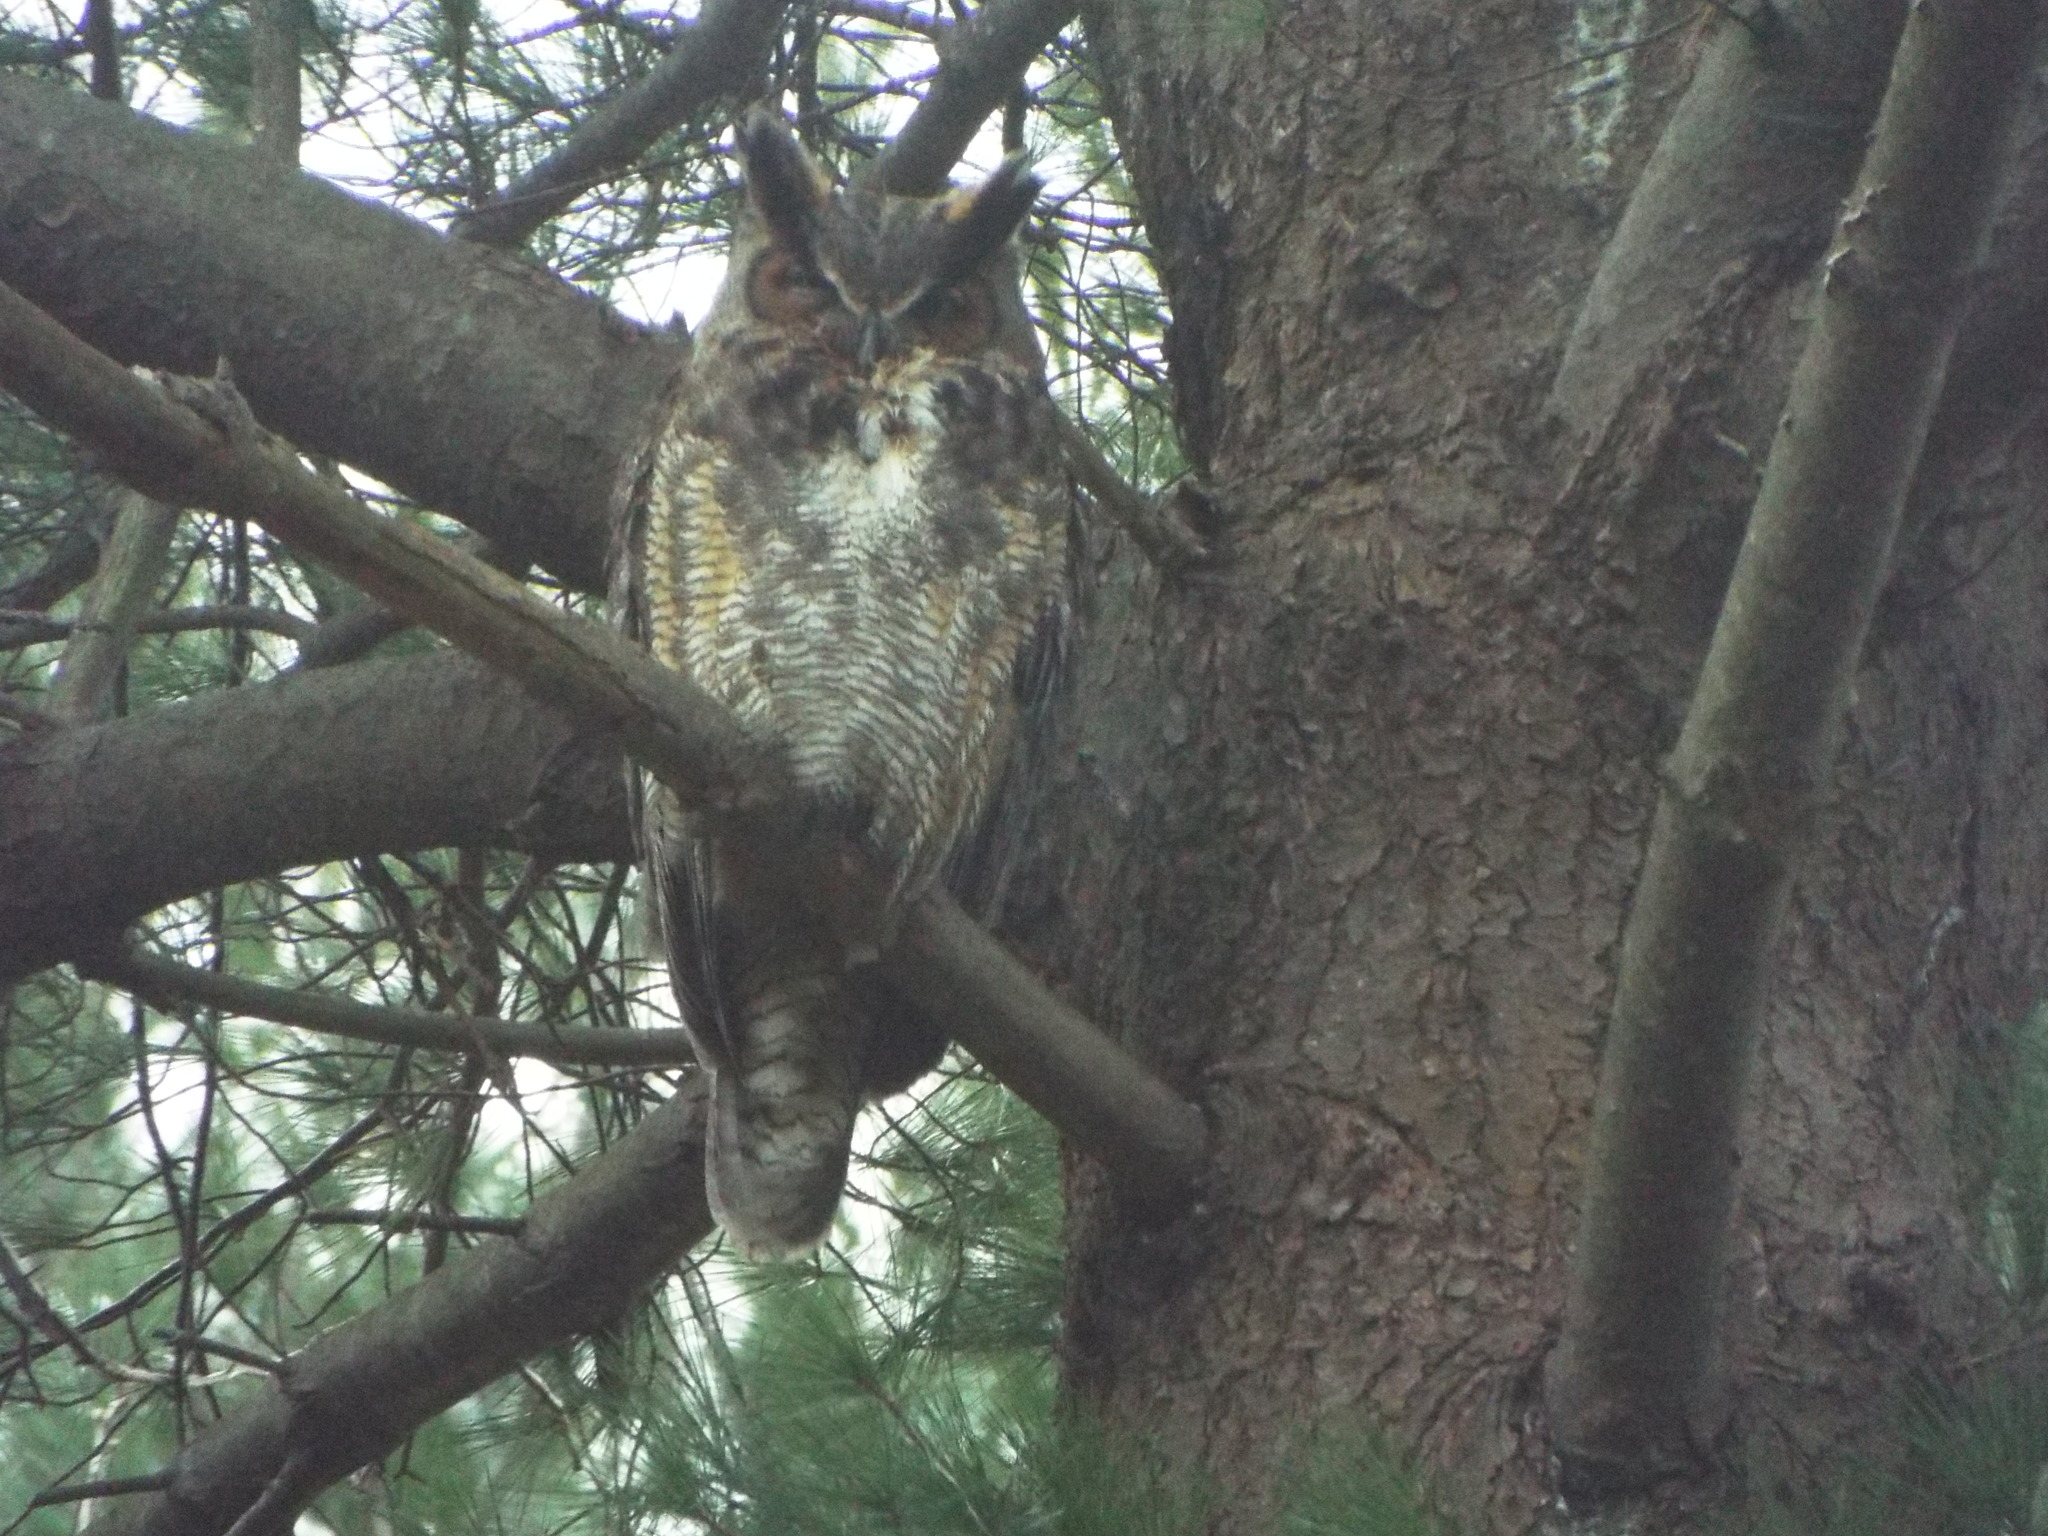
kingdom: Animalia
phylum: Chordata
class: Aves
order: Strigiformes
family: Strigidae
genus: Bubo
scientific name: Bubo virginianus
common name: Great horned owl
